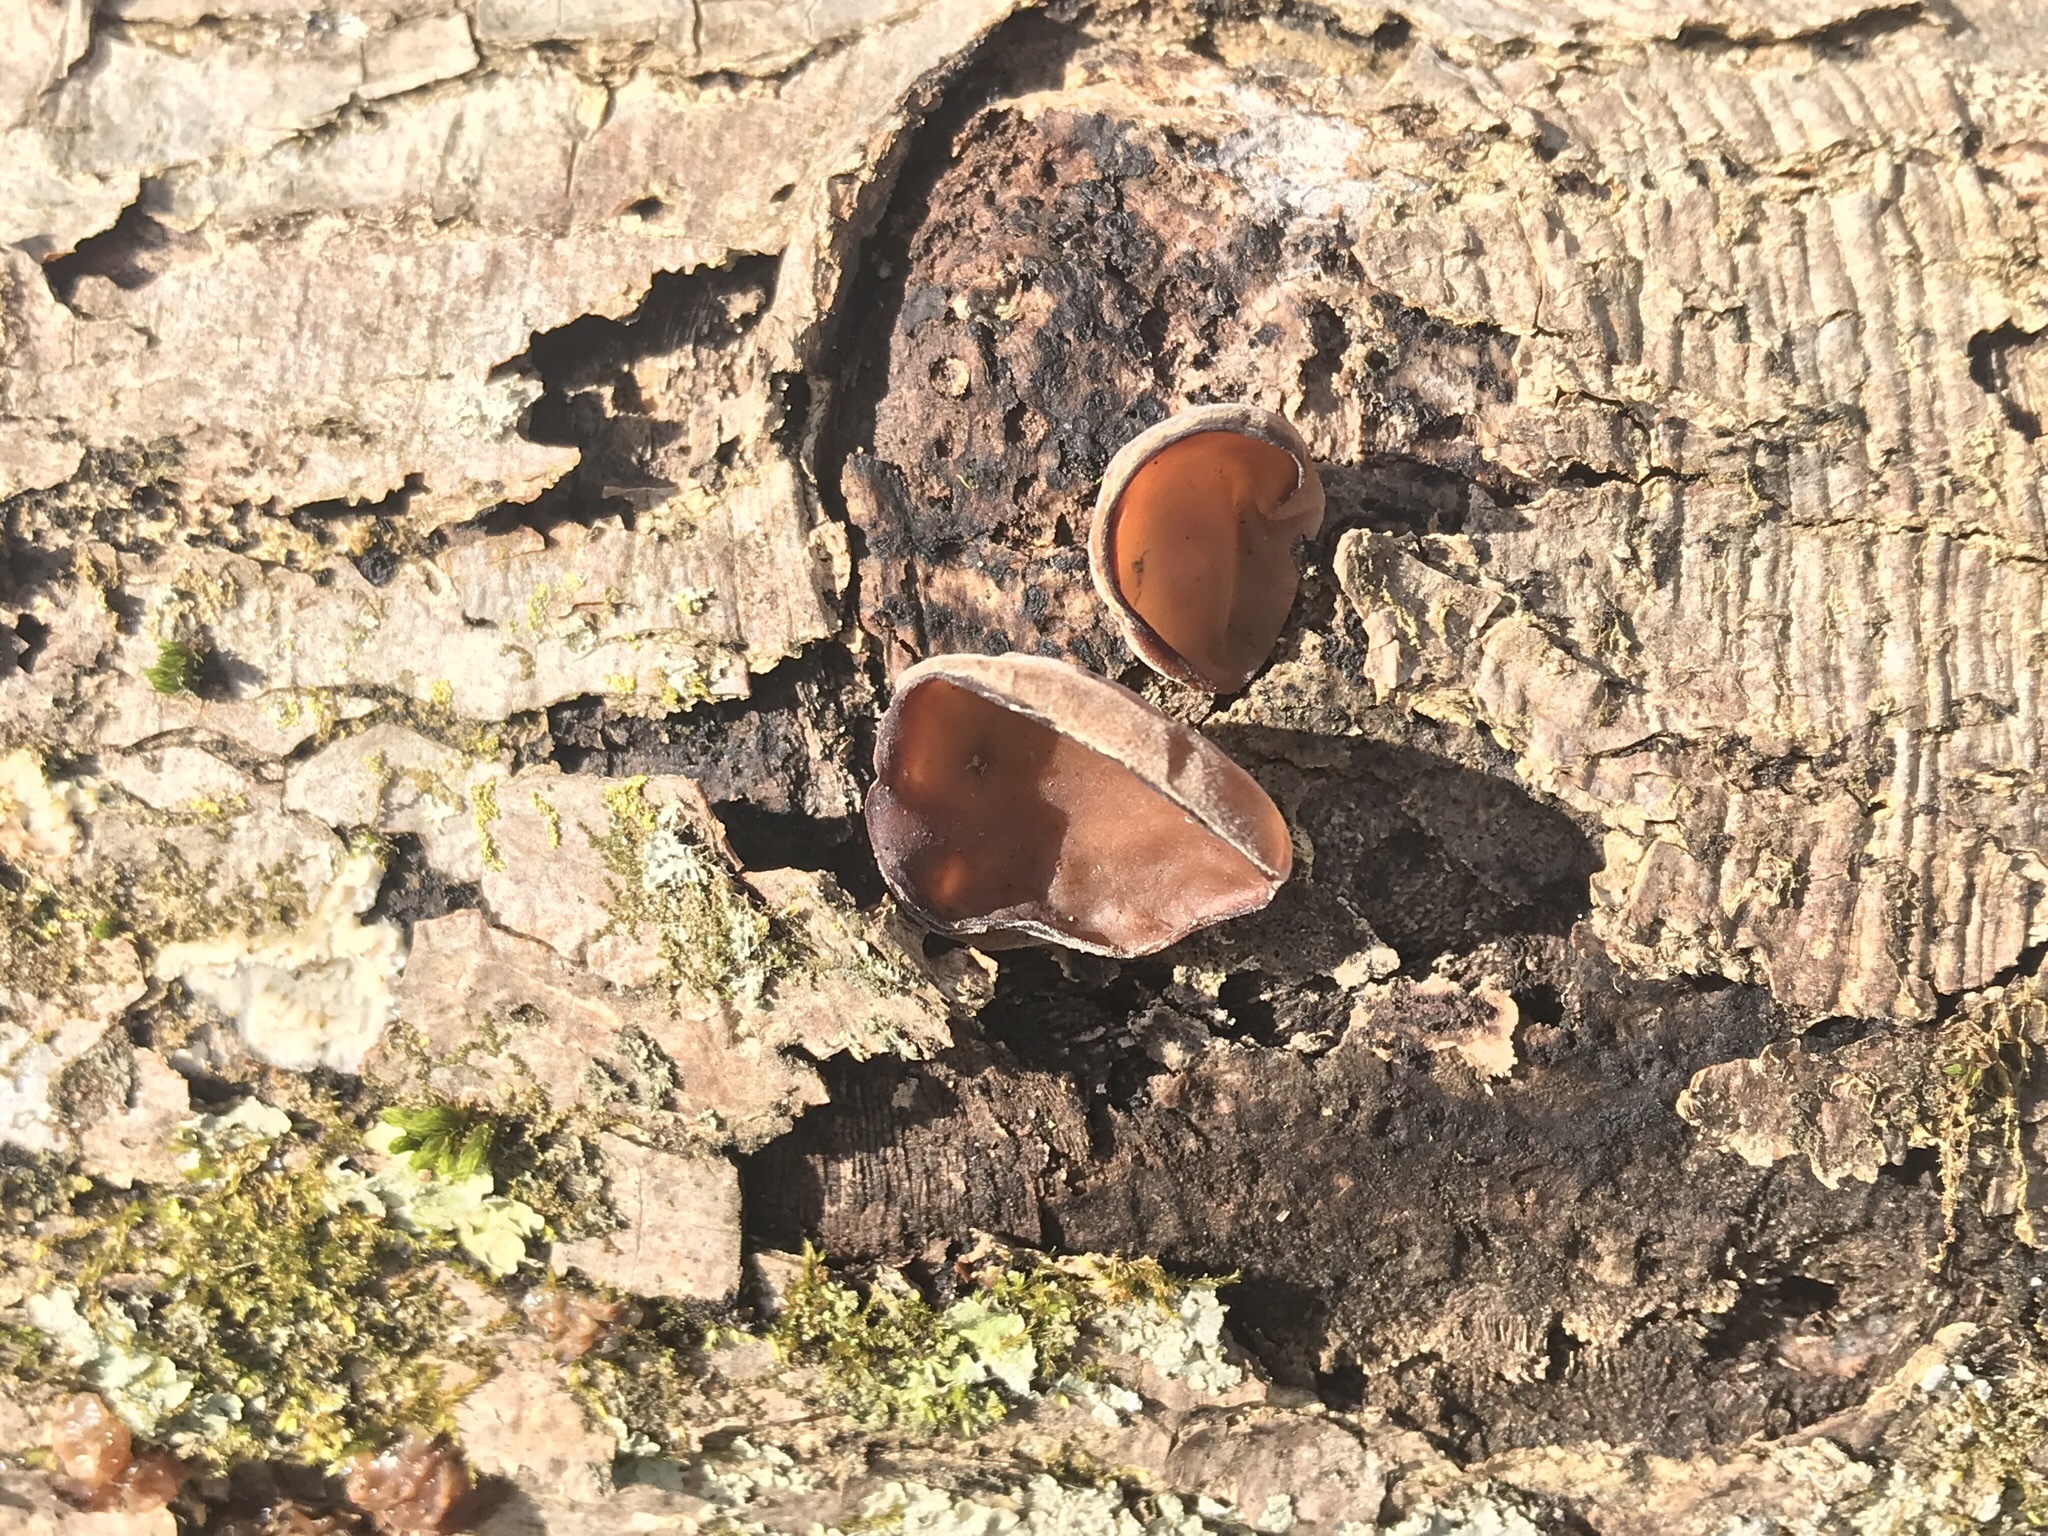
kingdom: Fungi
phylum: Basidiomycota
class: Agaricomycetes
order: Auriculariales
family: Auriculariaceae
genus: Auricularia
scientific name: Auricularia angiospermarum
